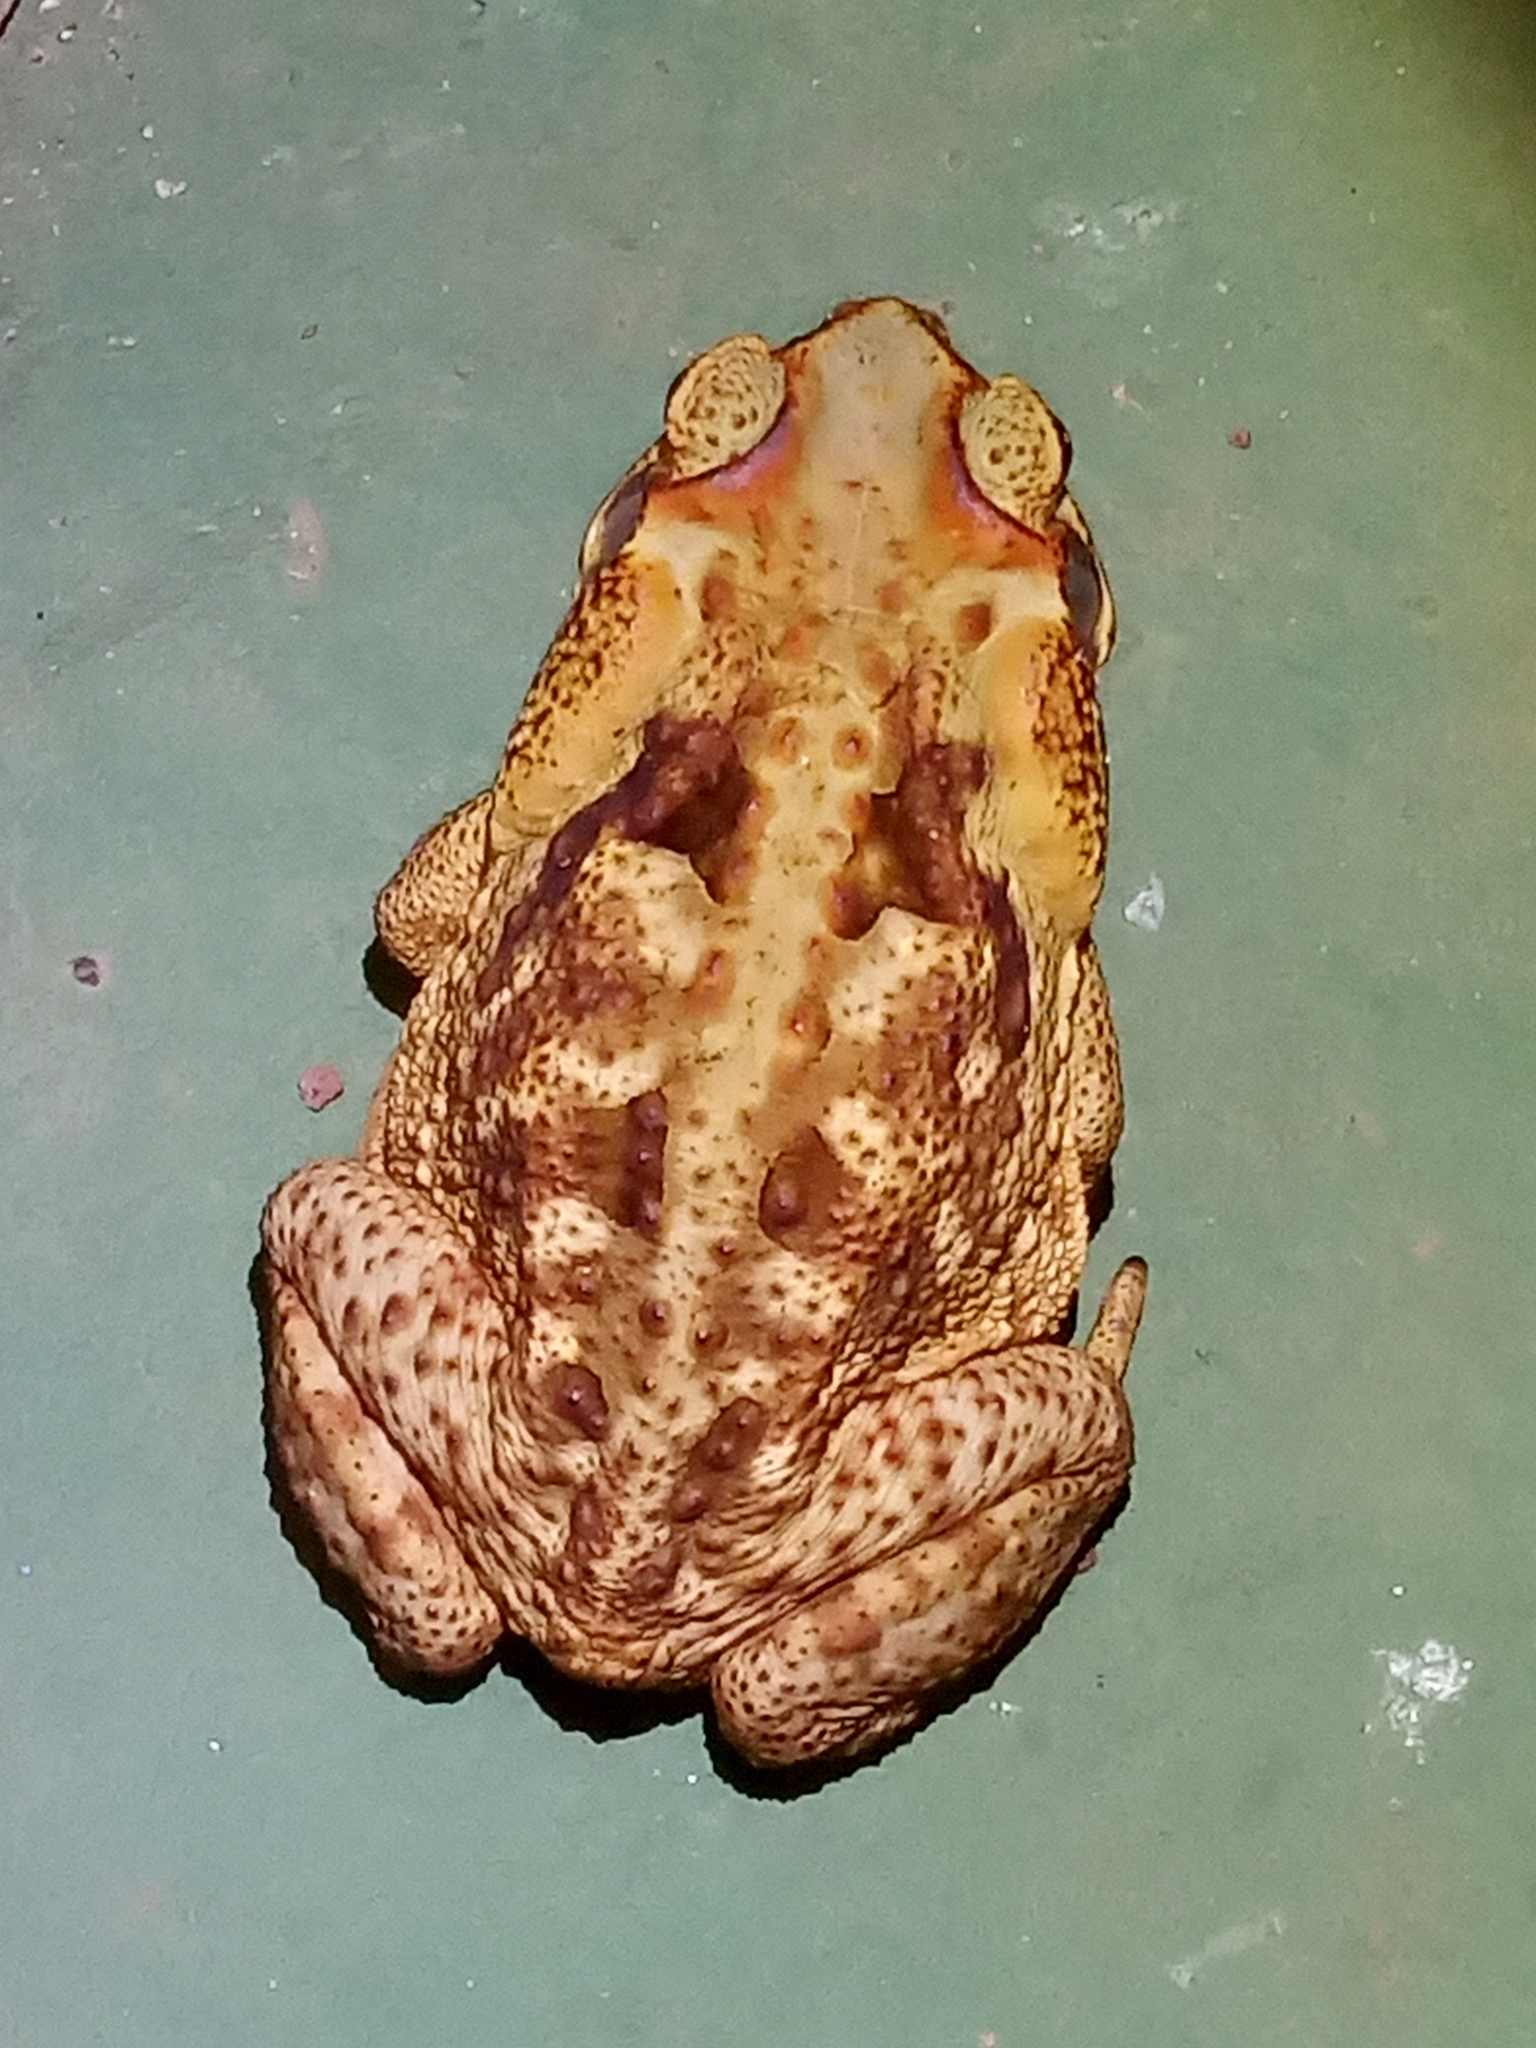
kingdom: Animalia
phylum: Chordata
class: Amphibia
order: Anura
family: Bufonidae
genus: Rhinella
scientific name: Rhinella diptycha
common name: Cope's toad
